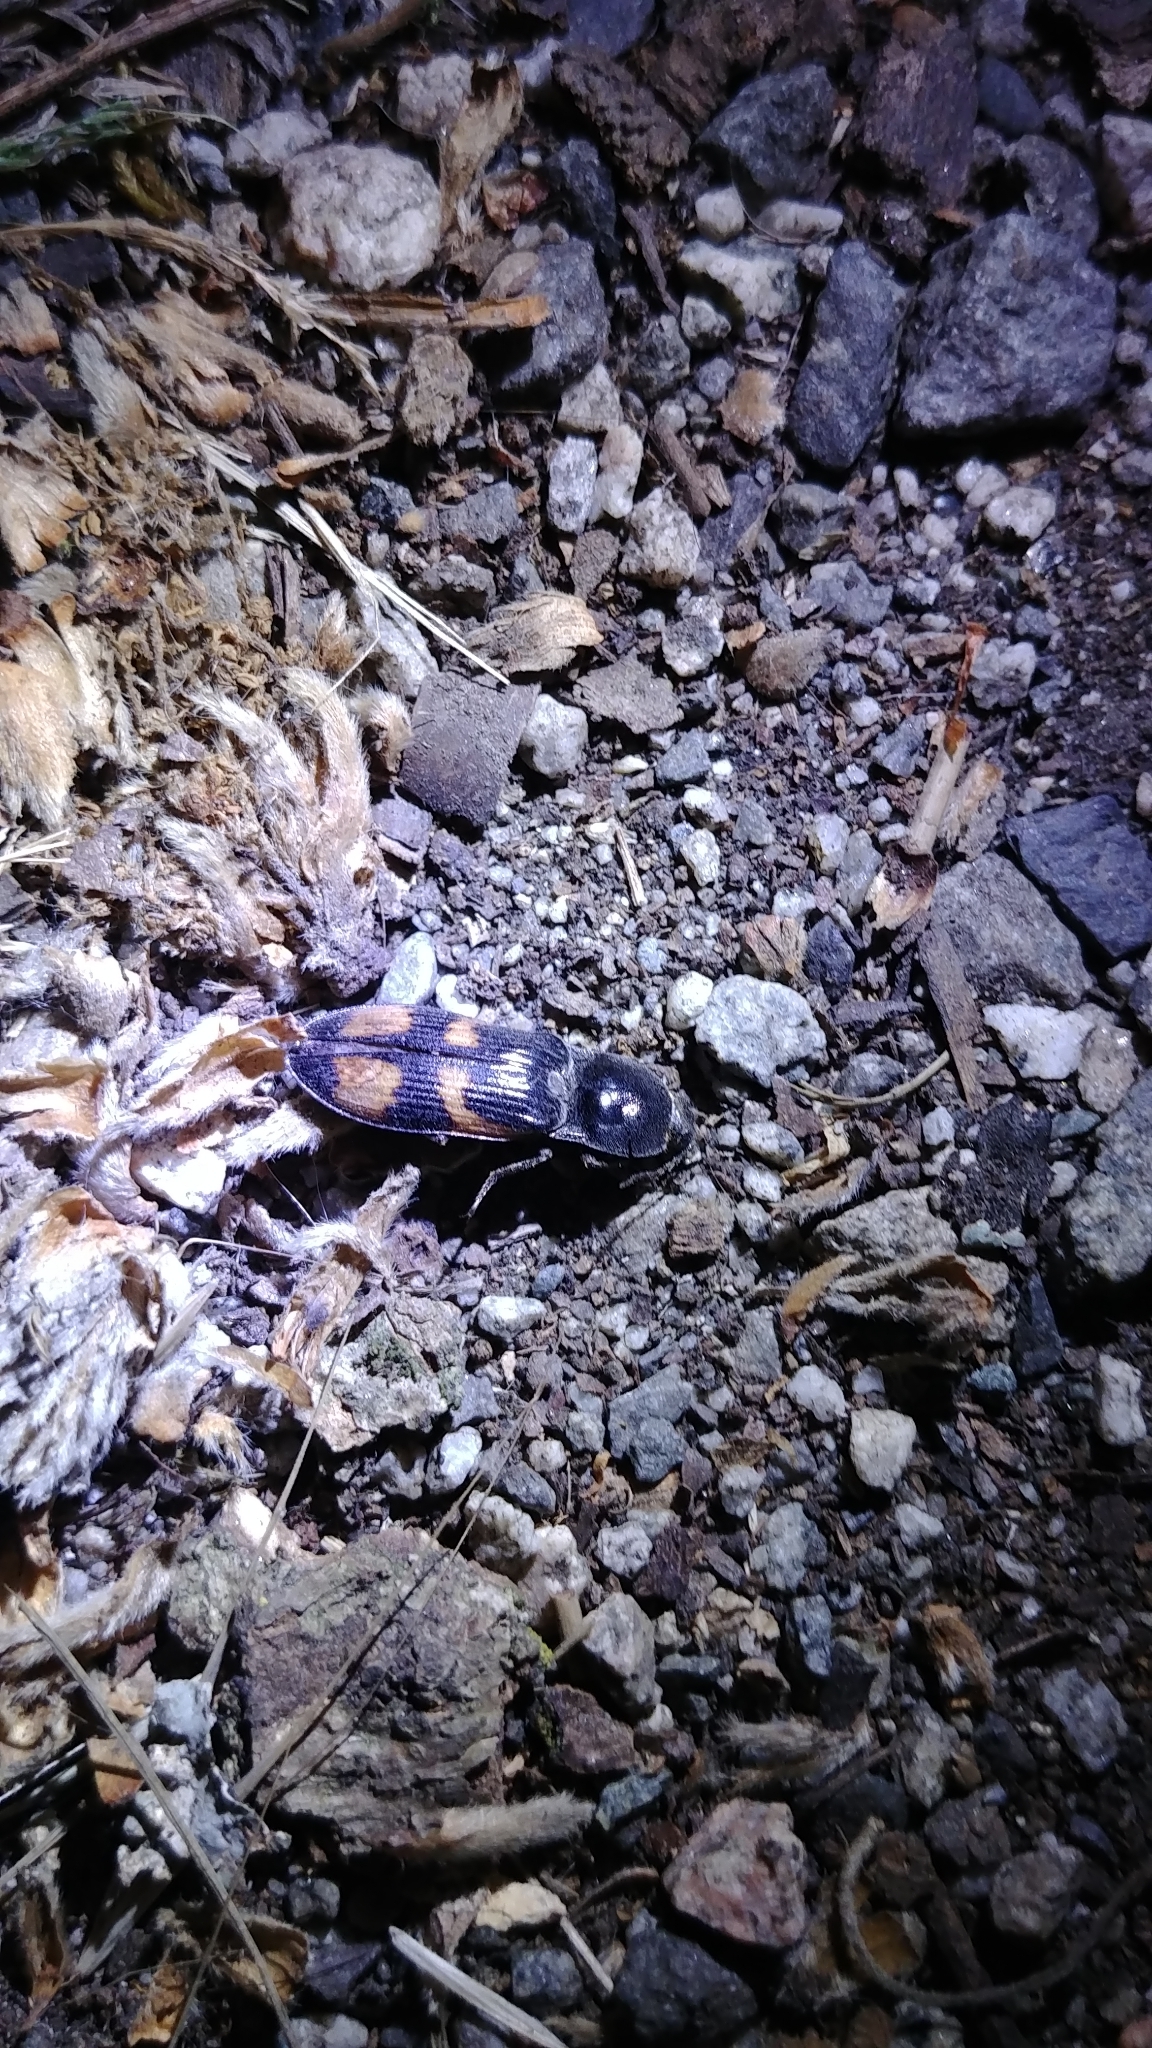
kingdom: Animalia
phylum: Arthropoda
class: Insecta
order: Coleoptera
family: Elateridae
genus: Selatosomus
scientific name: Selatosomus suckleyi
